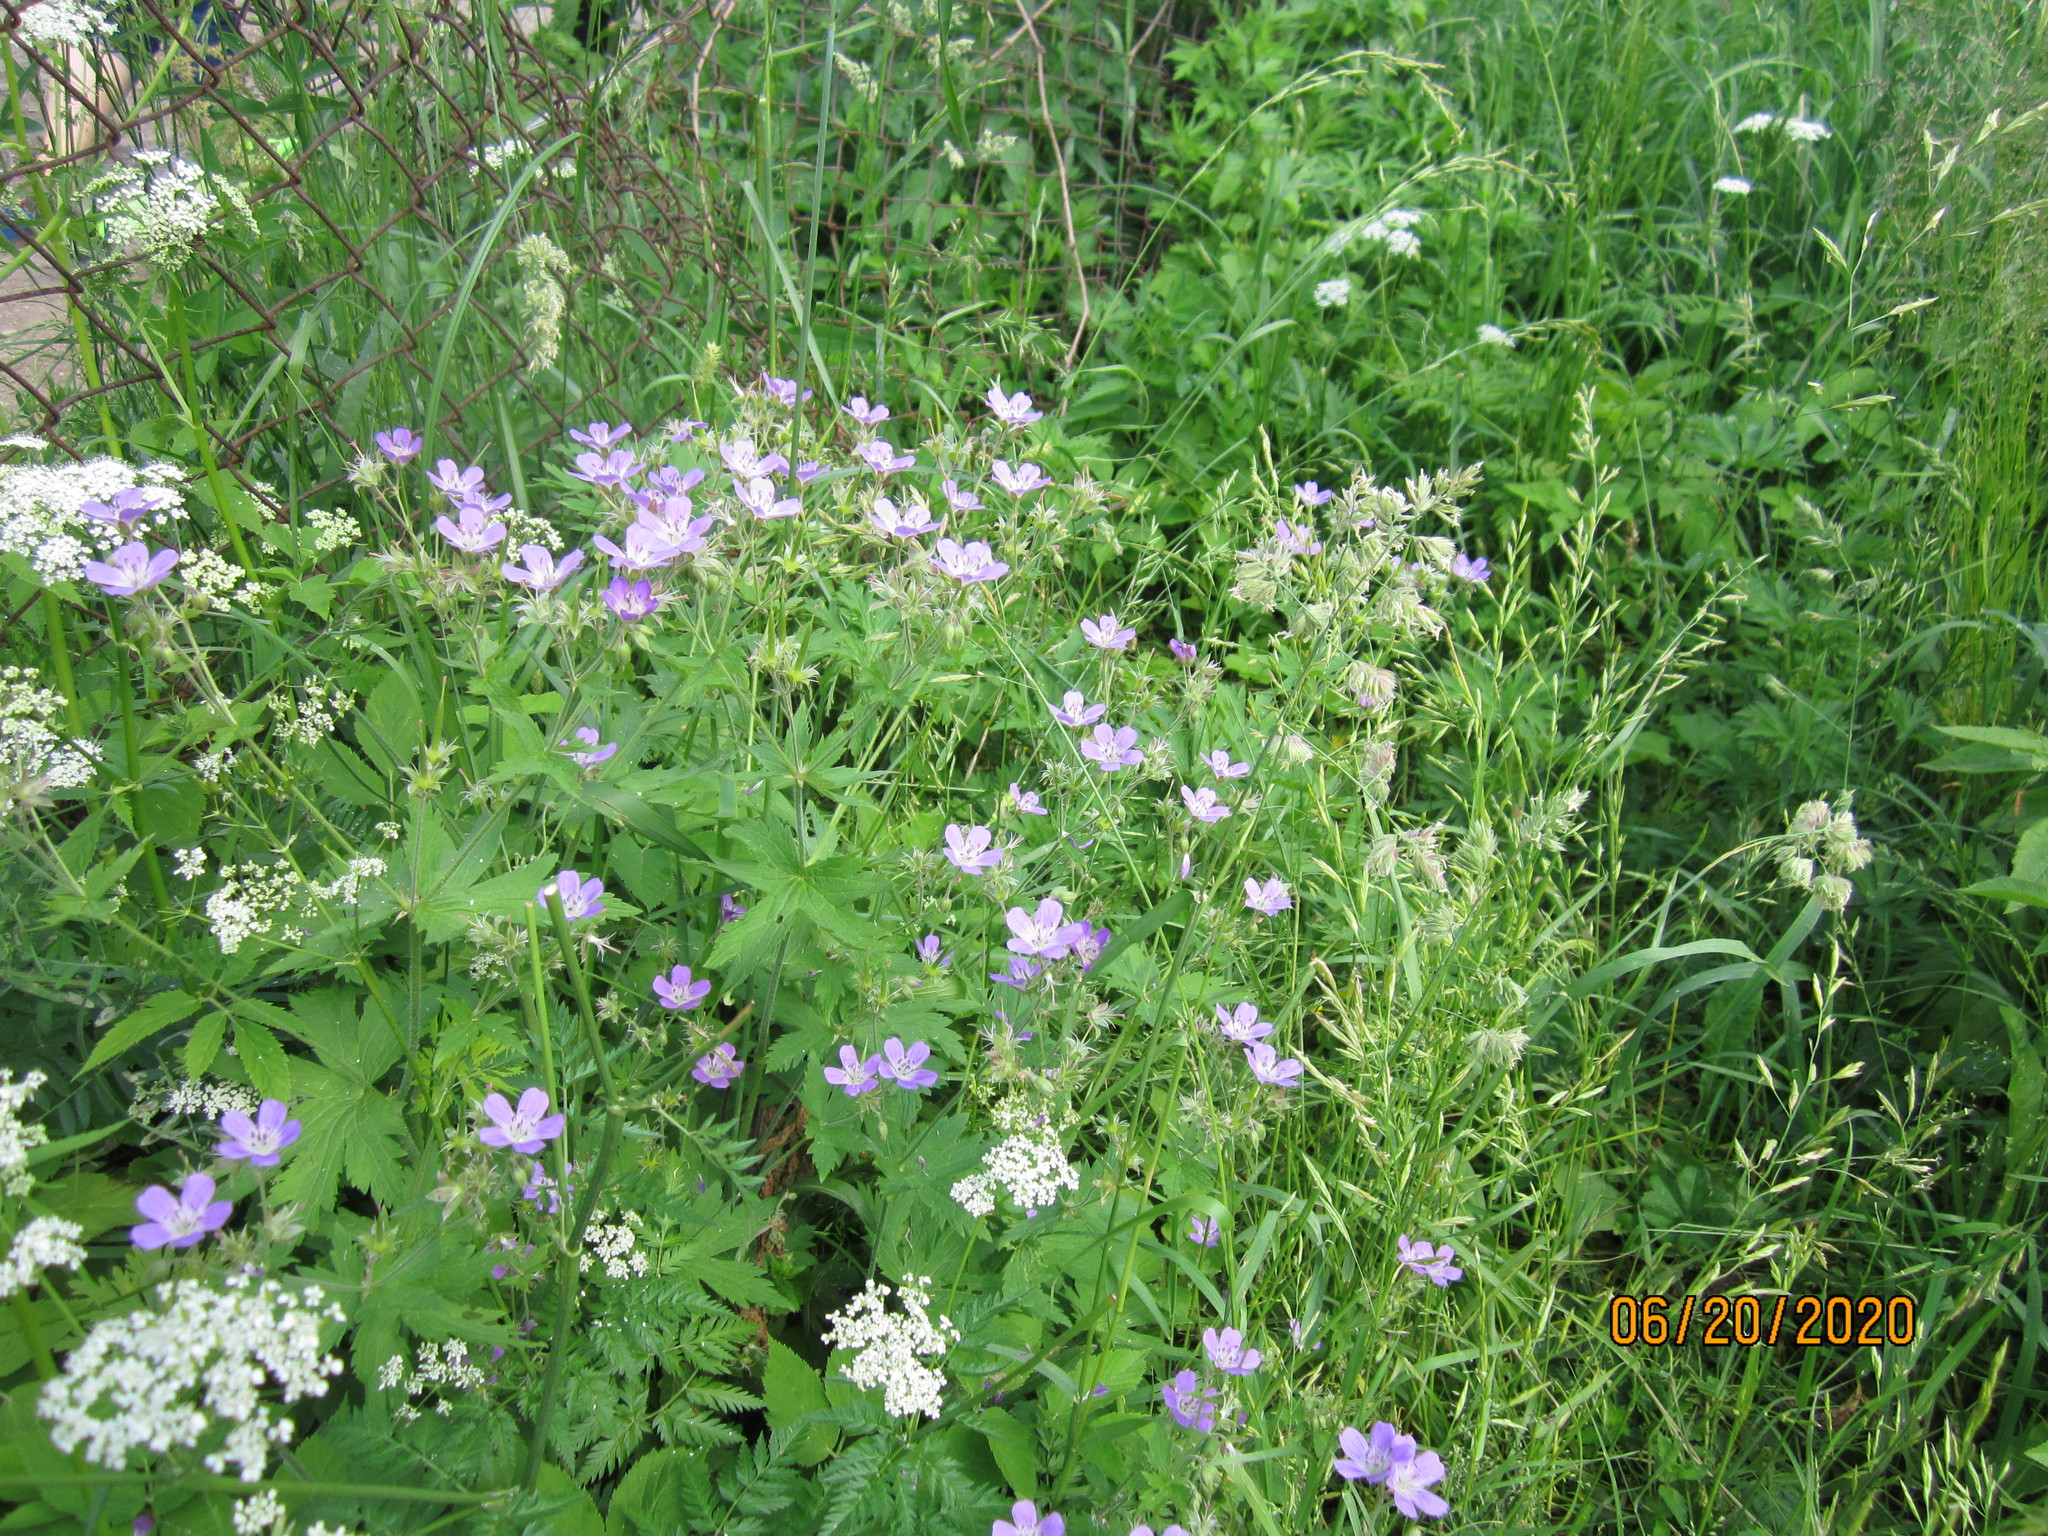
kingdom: Plantae
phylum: Tracheophyta
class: Magnoliopsida
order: Geraniales
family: Geraniaceae
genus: Geranium
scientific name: Geranium sylvaticum
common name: Wood crane's-bill
